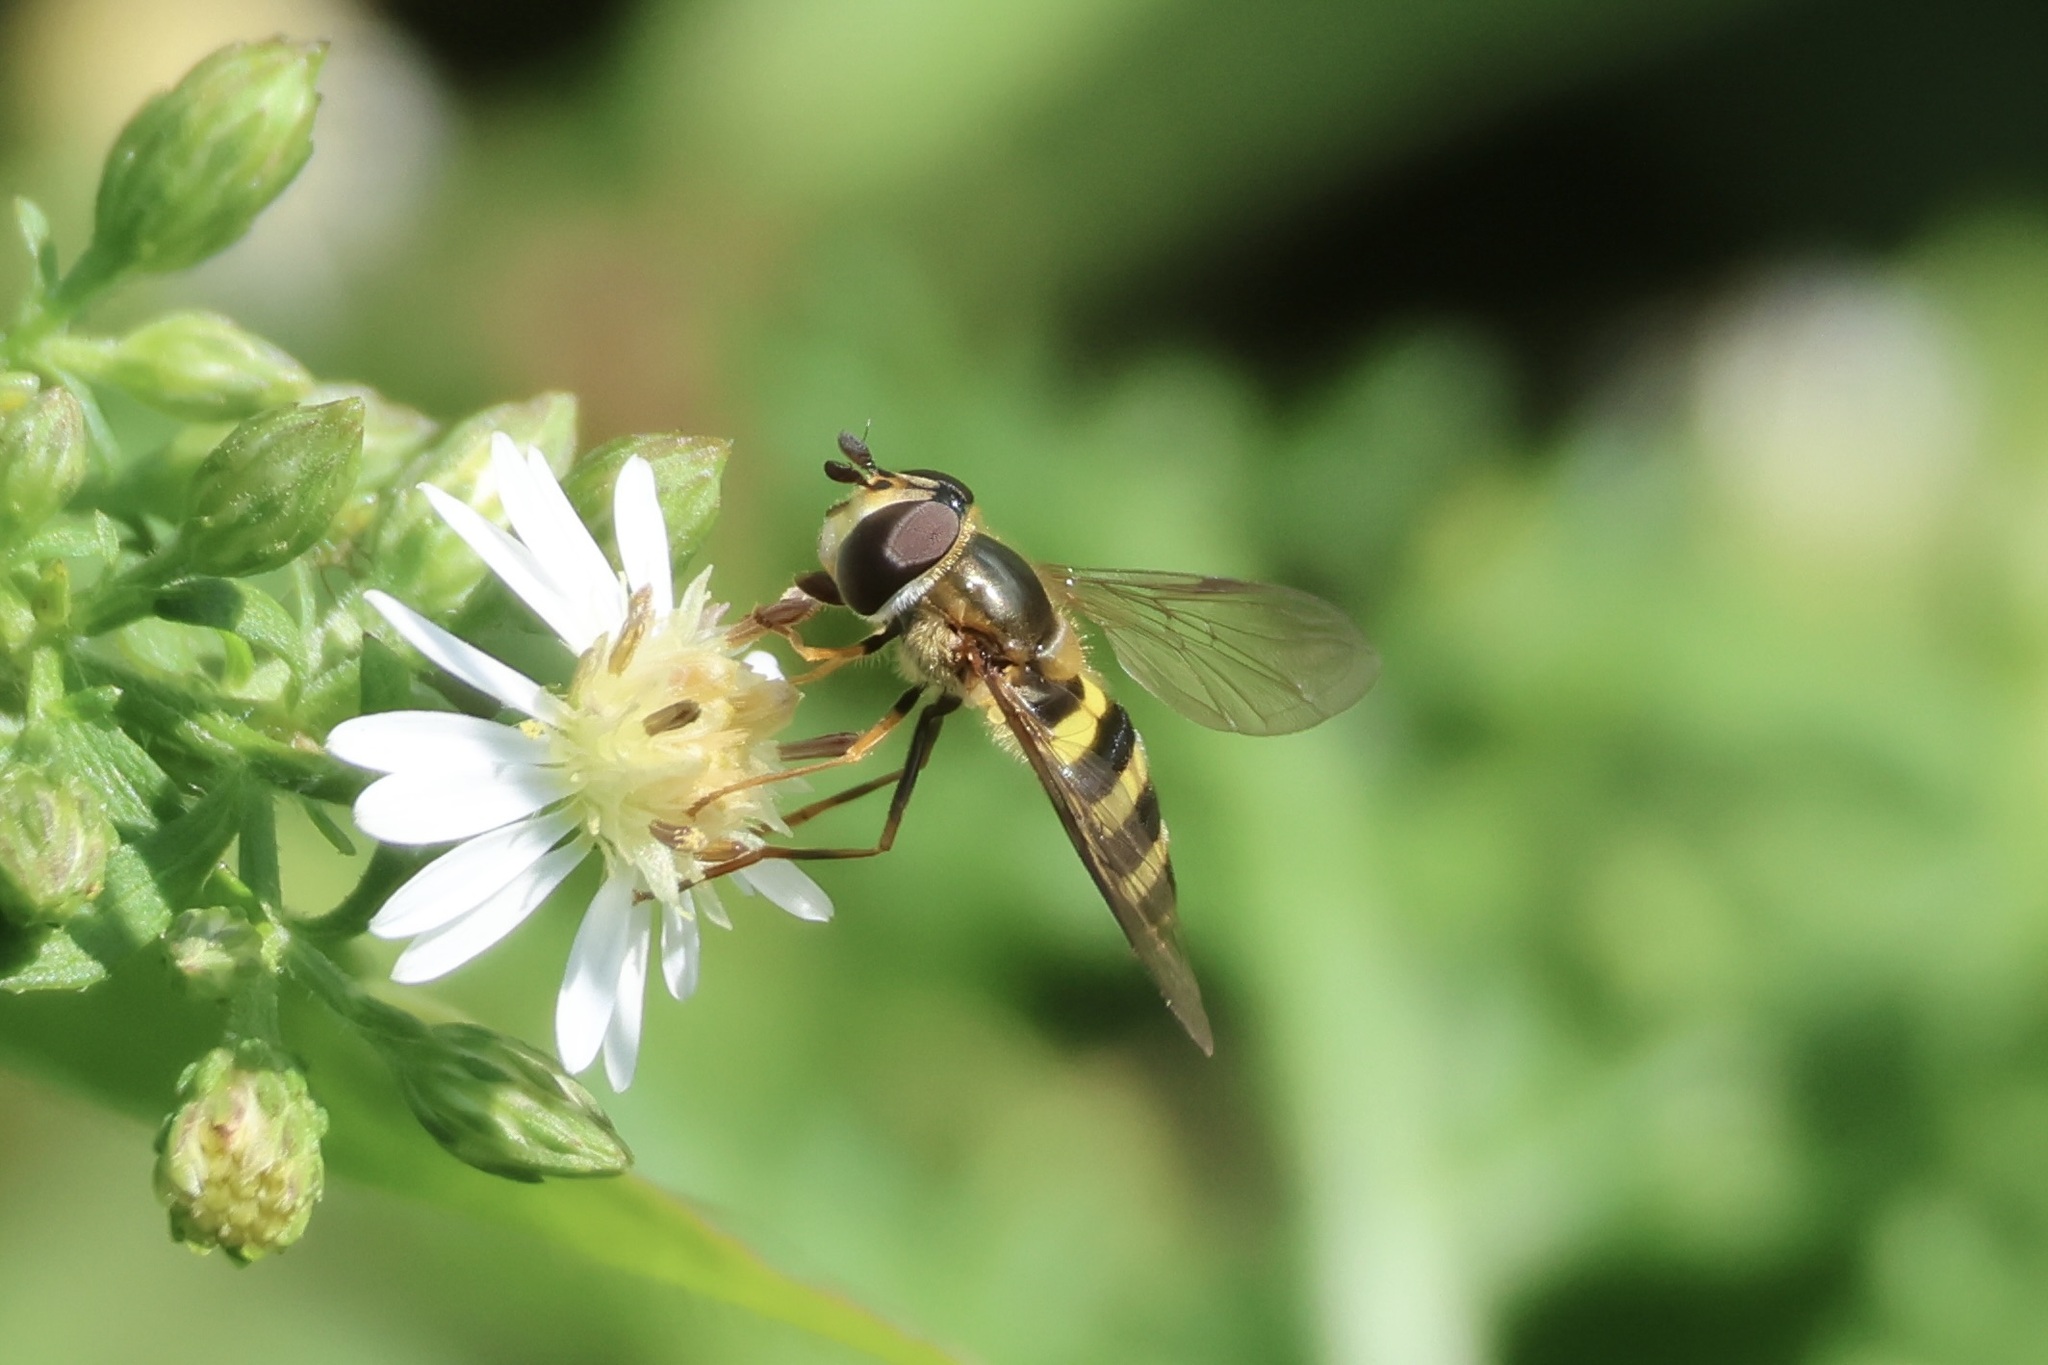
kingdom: Animalia
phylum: Arthropoda
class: Insecta
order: Diptera
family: Syrphidae
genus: Eupeodes
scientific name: Eupeodes
